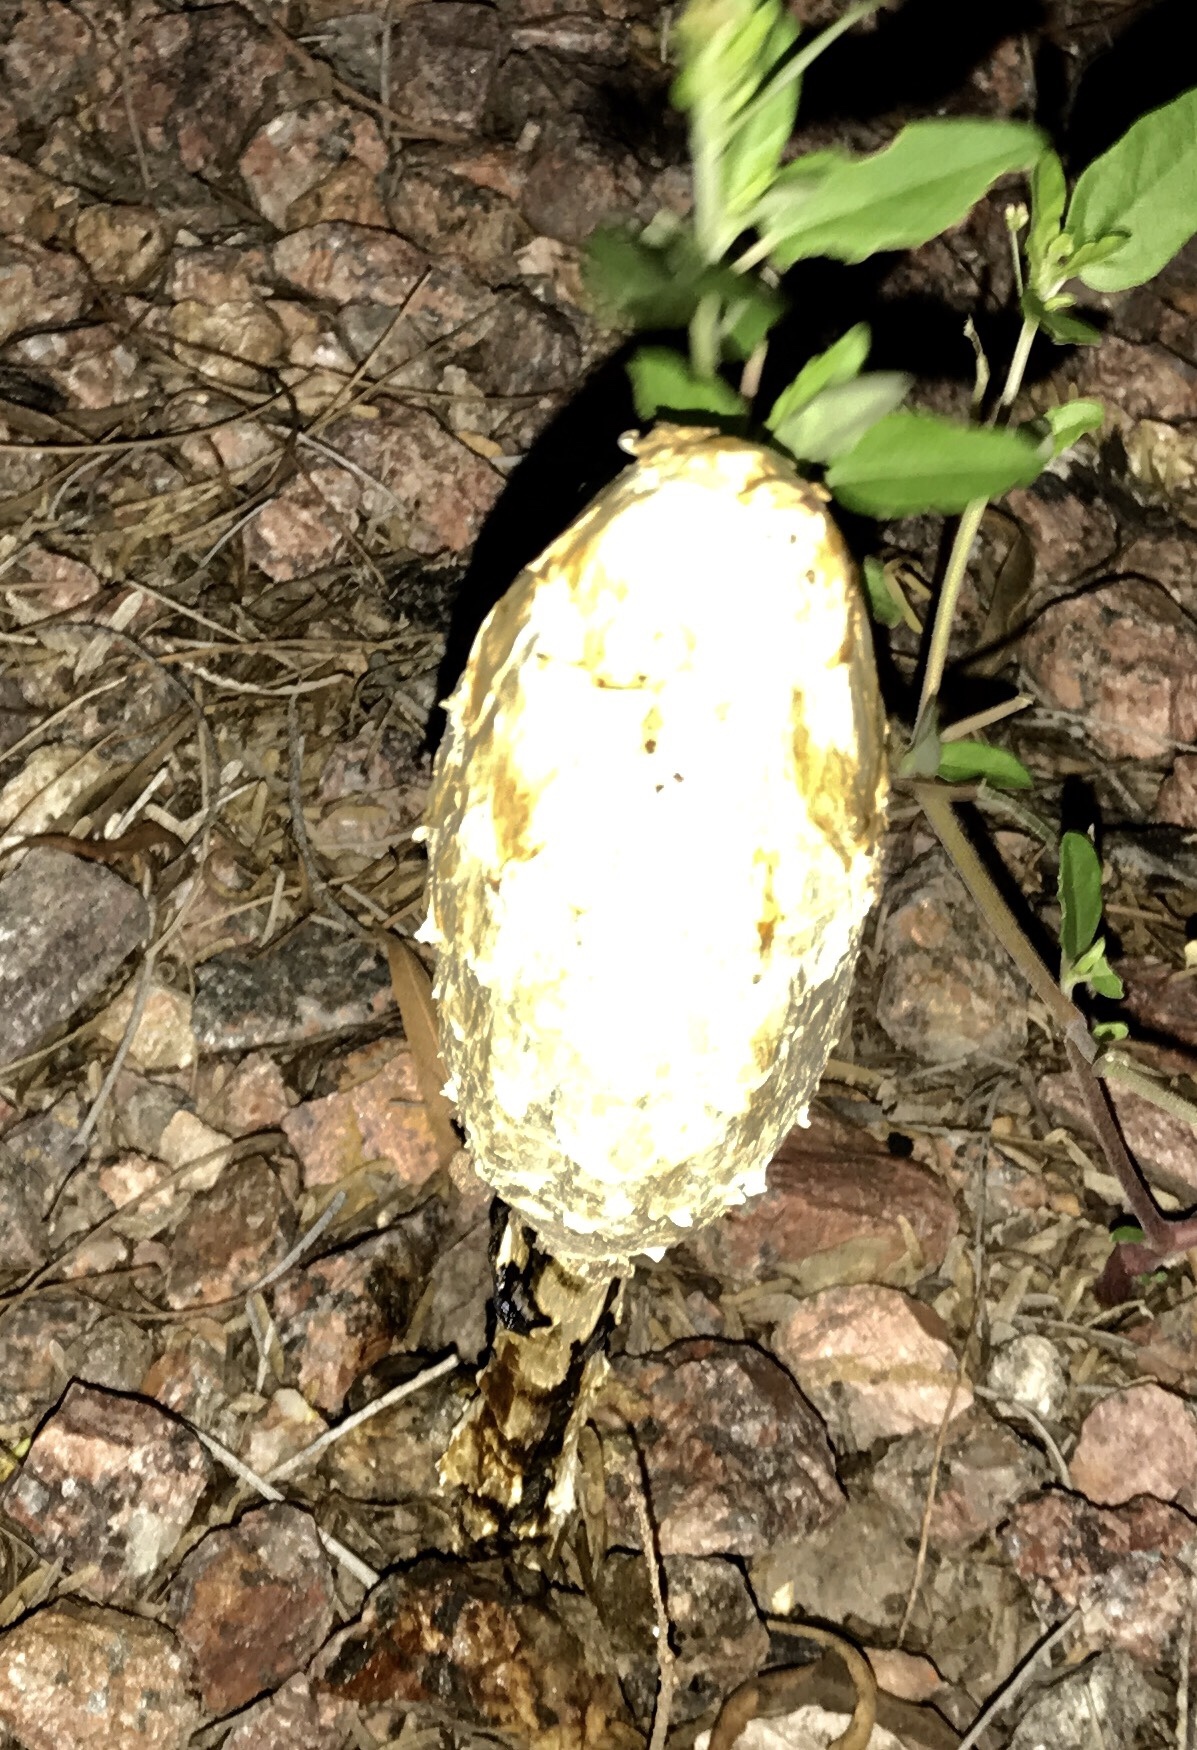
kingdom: Fungi
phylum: Basidiomycota
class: Agaricomycetes
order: Agaricales
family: Agaricaceae
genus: Podaxis
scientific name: Podaxis pistillaris
